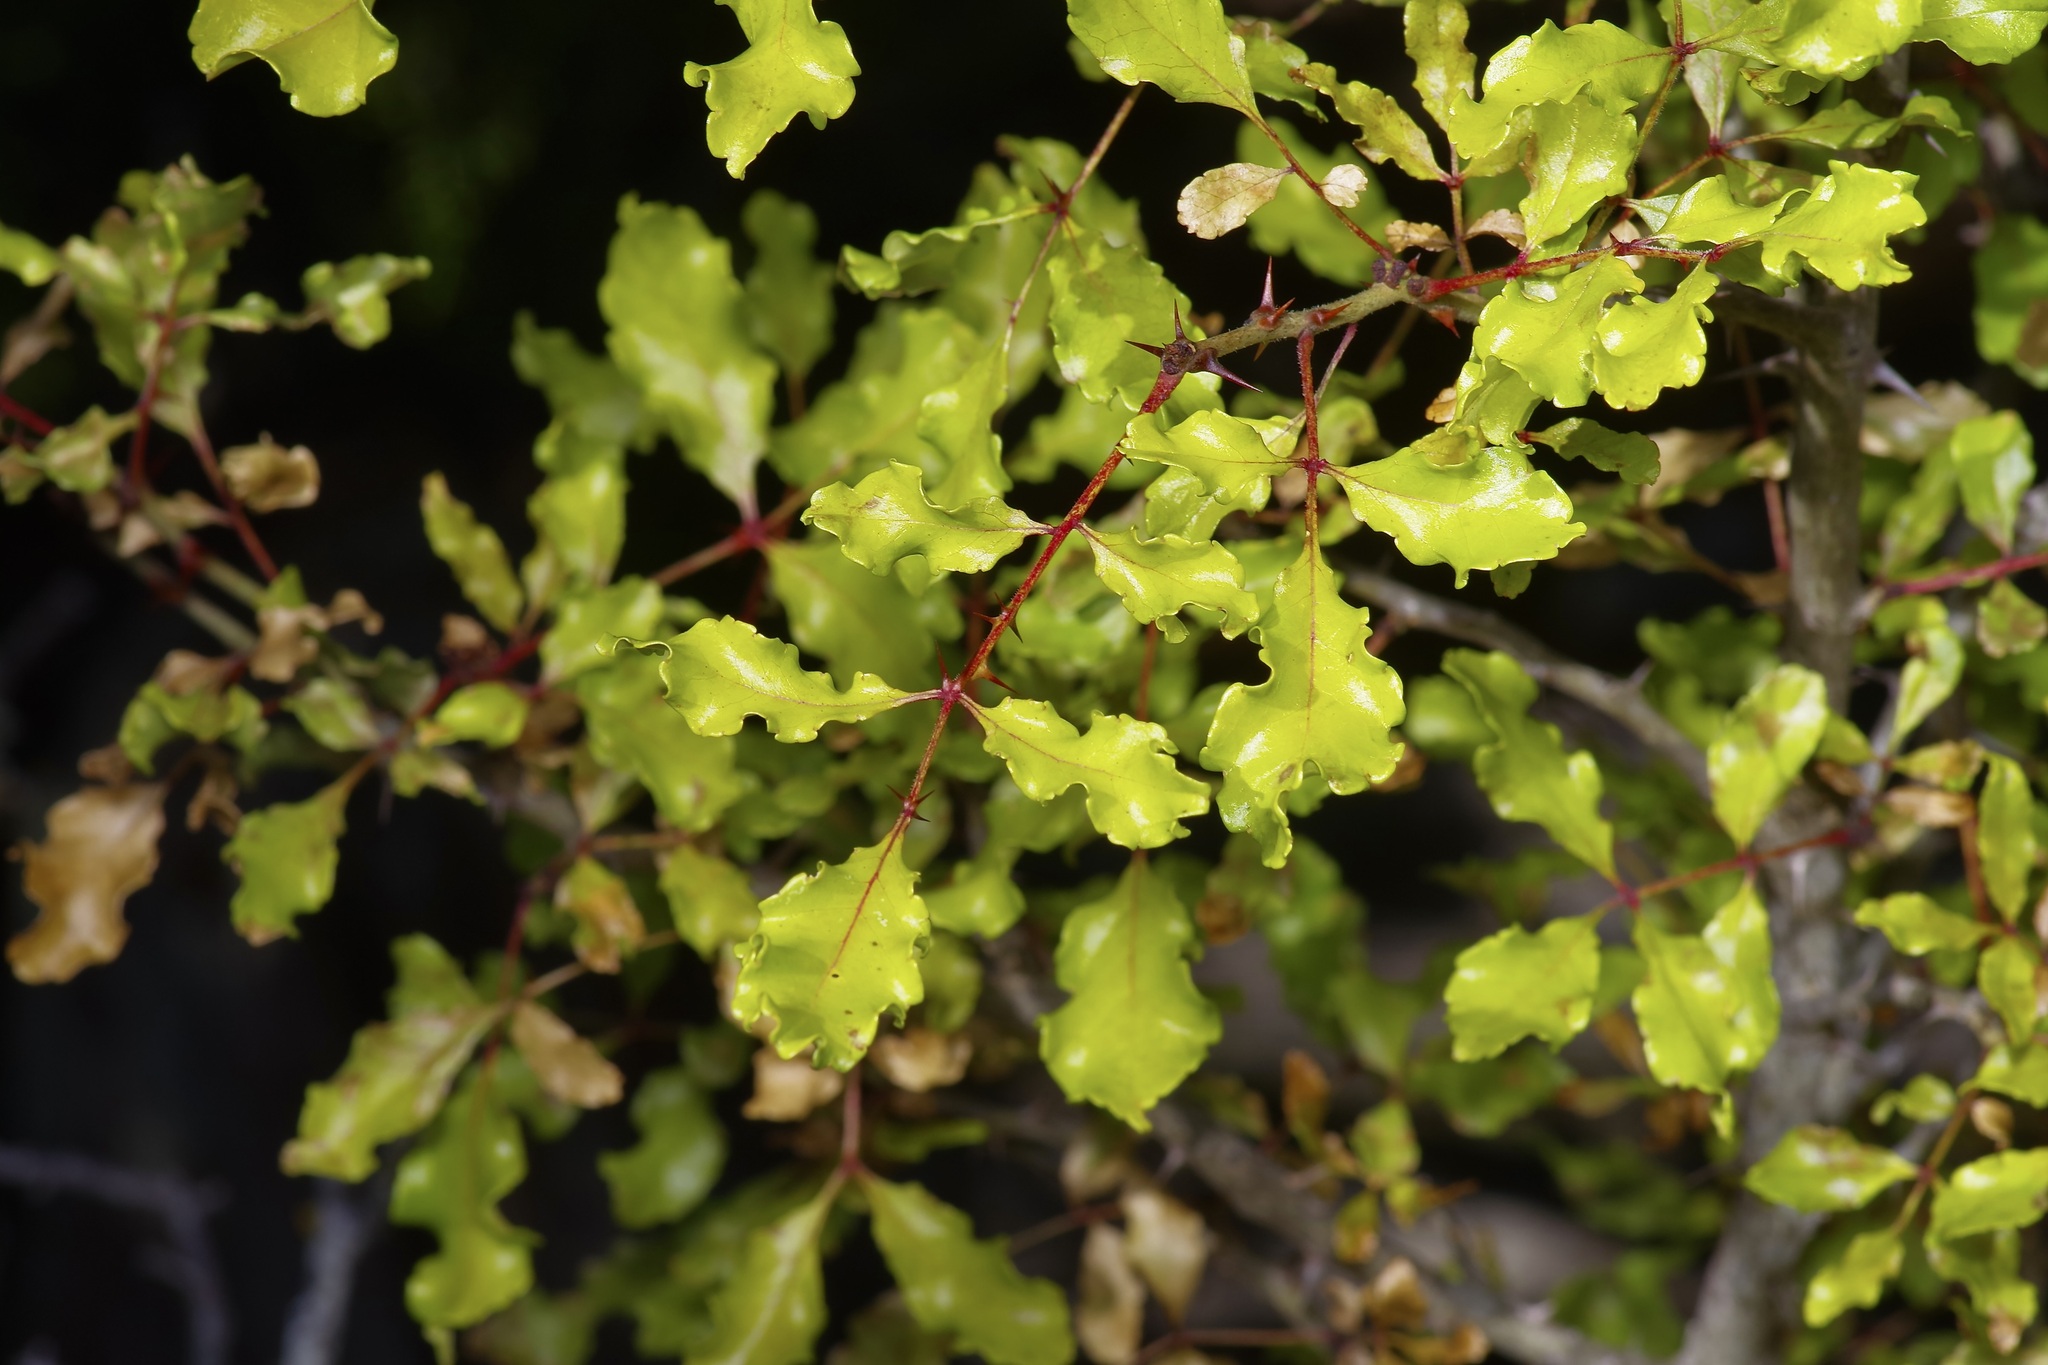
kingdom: Plantae
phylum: Tracheophyta
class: Magnoliopsida
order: Sapindales
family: Rutaceae
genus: Zanthoxylum
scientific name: Zanthoxylum clava-herculis
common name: Hercules'-club
